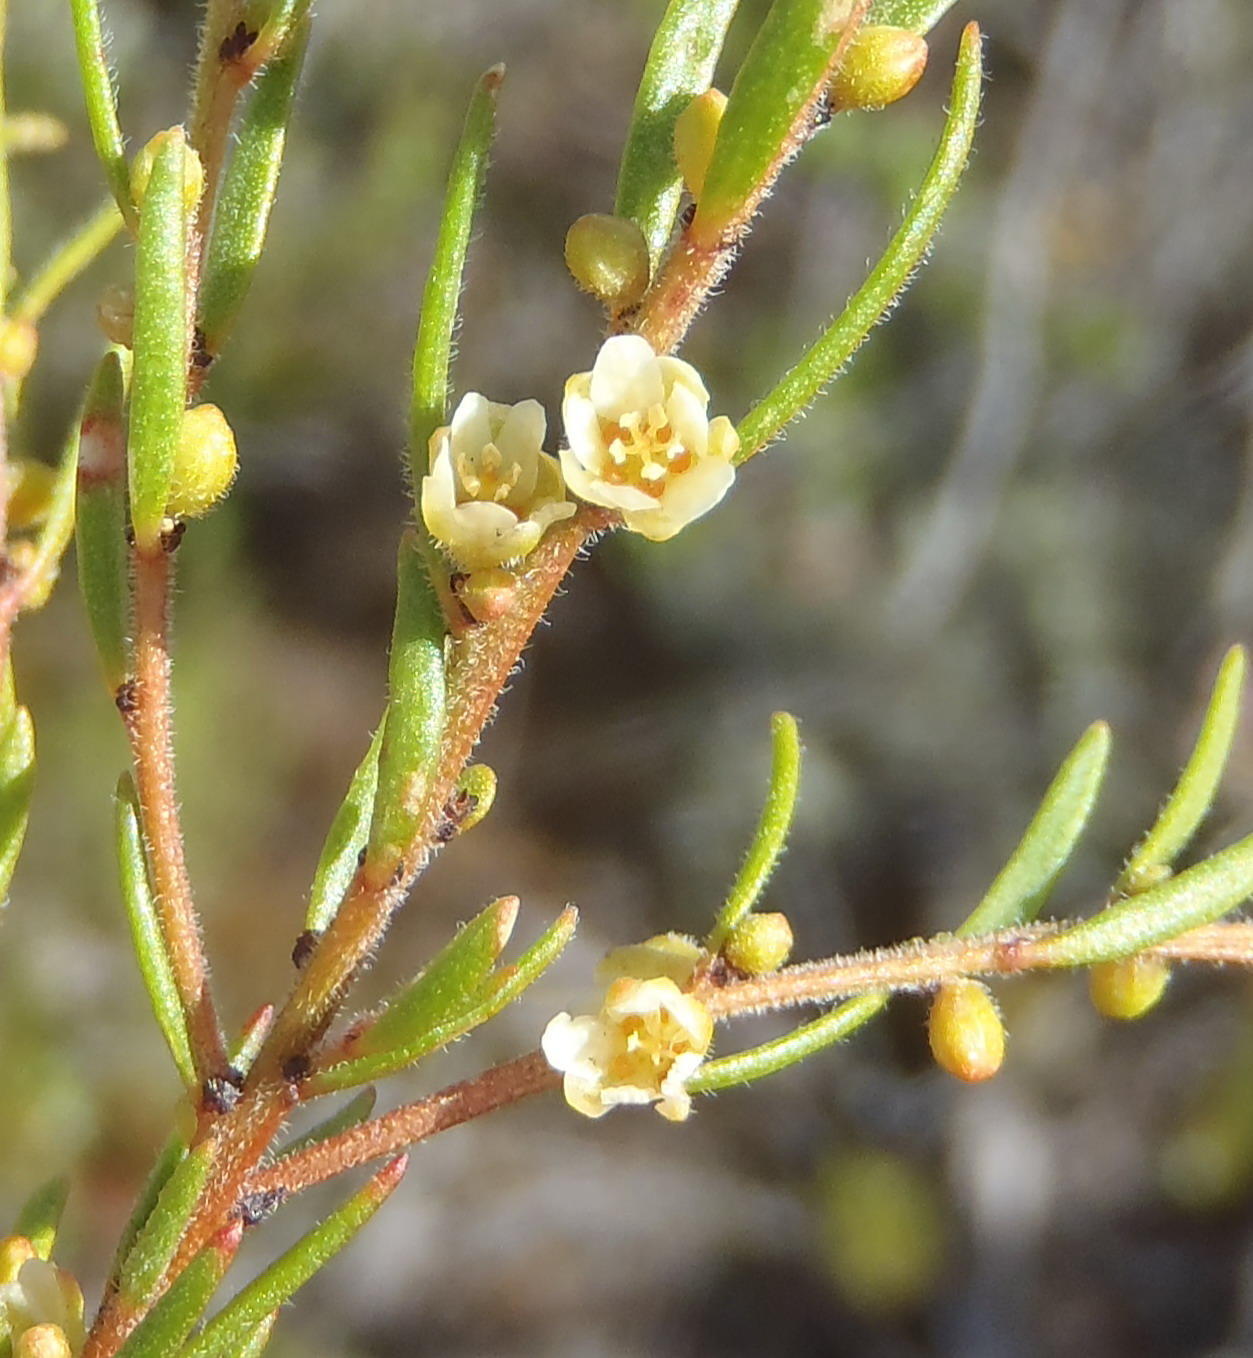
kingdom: Plantae
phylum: Tracheophyta
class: Magnoliopsida
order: Malpighiales
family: Peraceae
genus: Clutia
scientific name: Clutia ericoides
